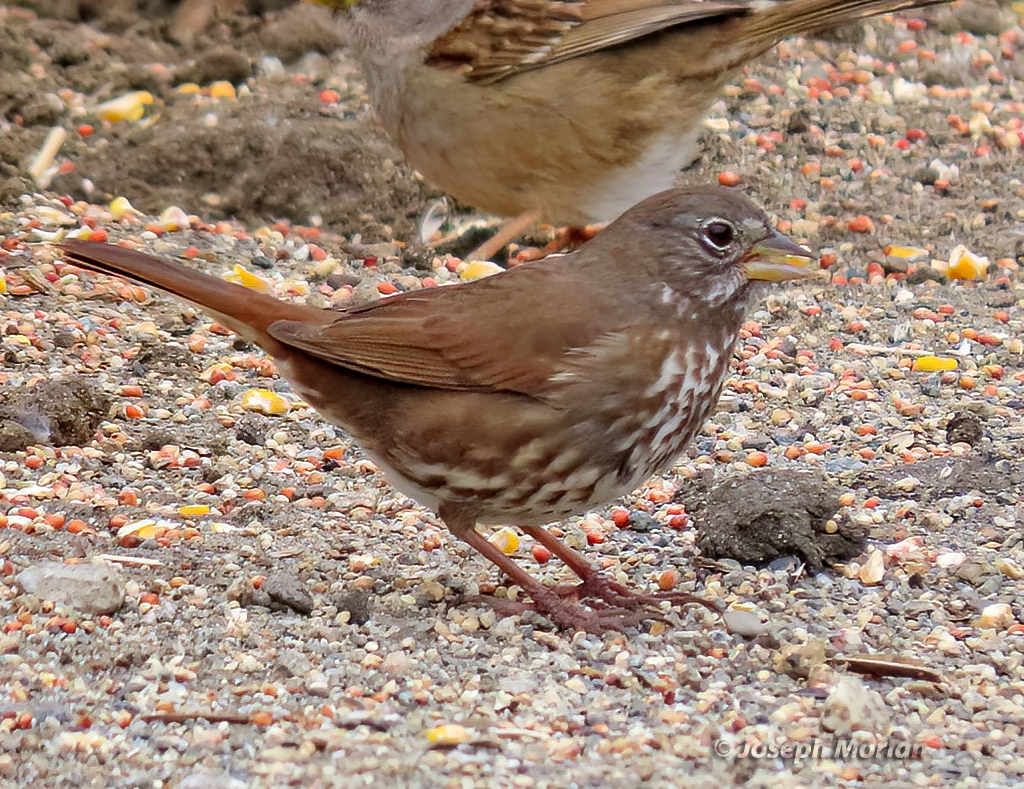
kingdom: Animalia
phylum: Chordata
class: Aves
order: Passeriformes
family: Passerellidae
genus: Passerella
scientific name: Passerella iliaca
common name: Fox sparrow
